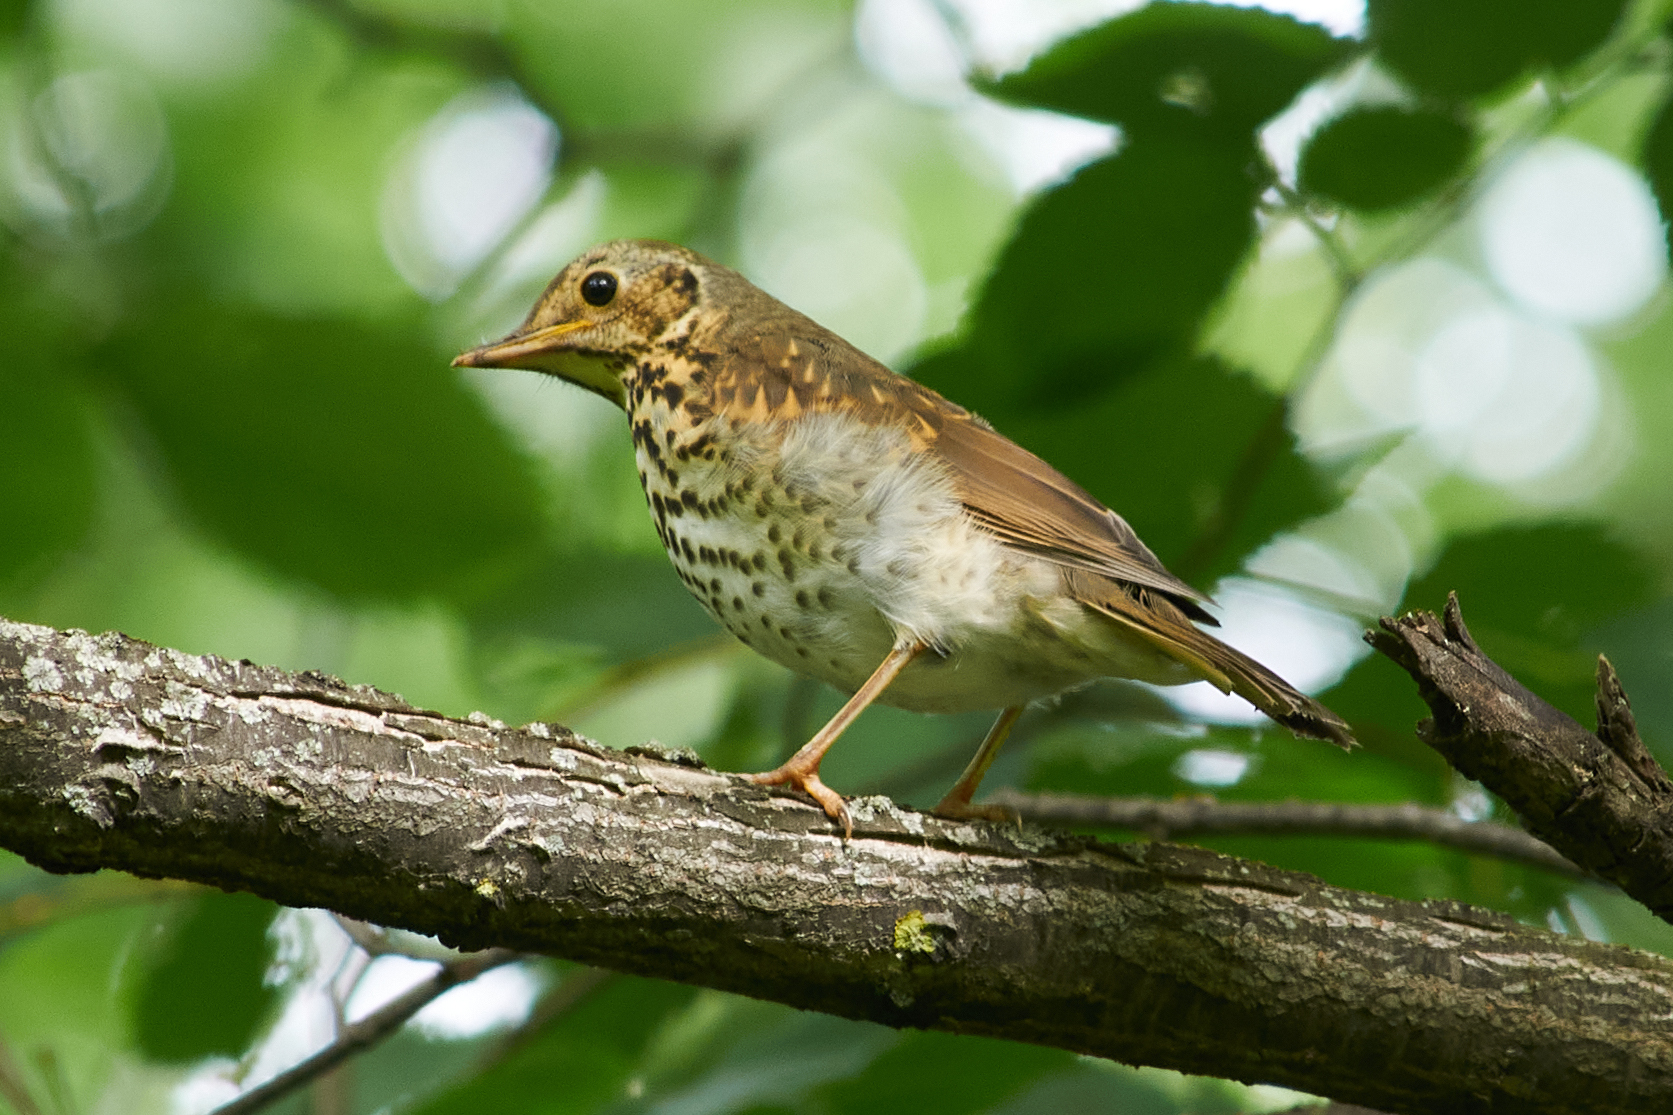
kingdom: Animalia
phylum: Chordata
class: Aves
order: Passeriformes
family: Turdidae
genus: Turdus
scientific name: Turdus philomelos
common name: Song thrush
